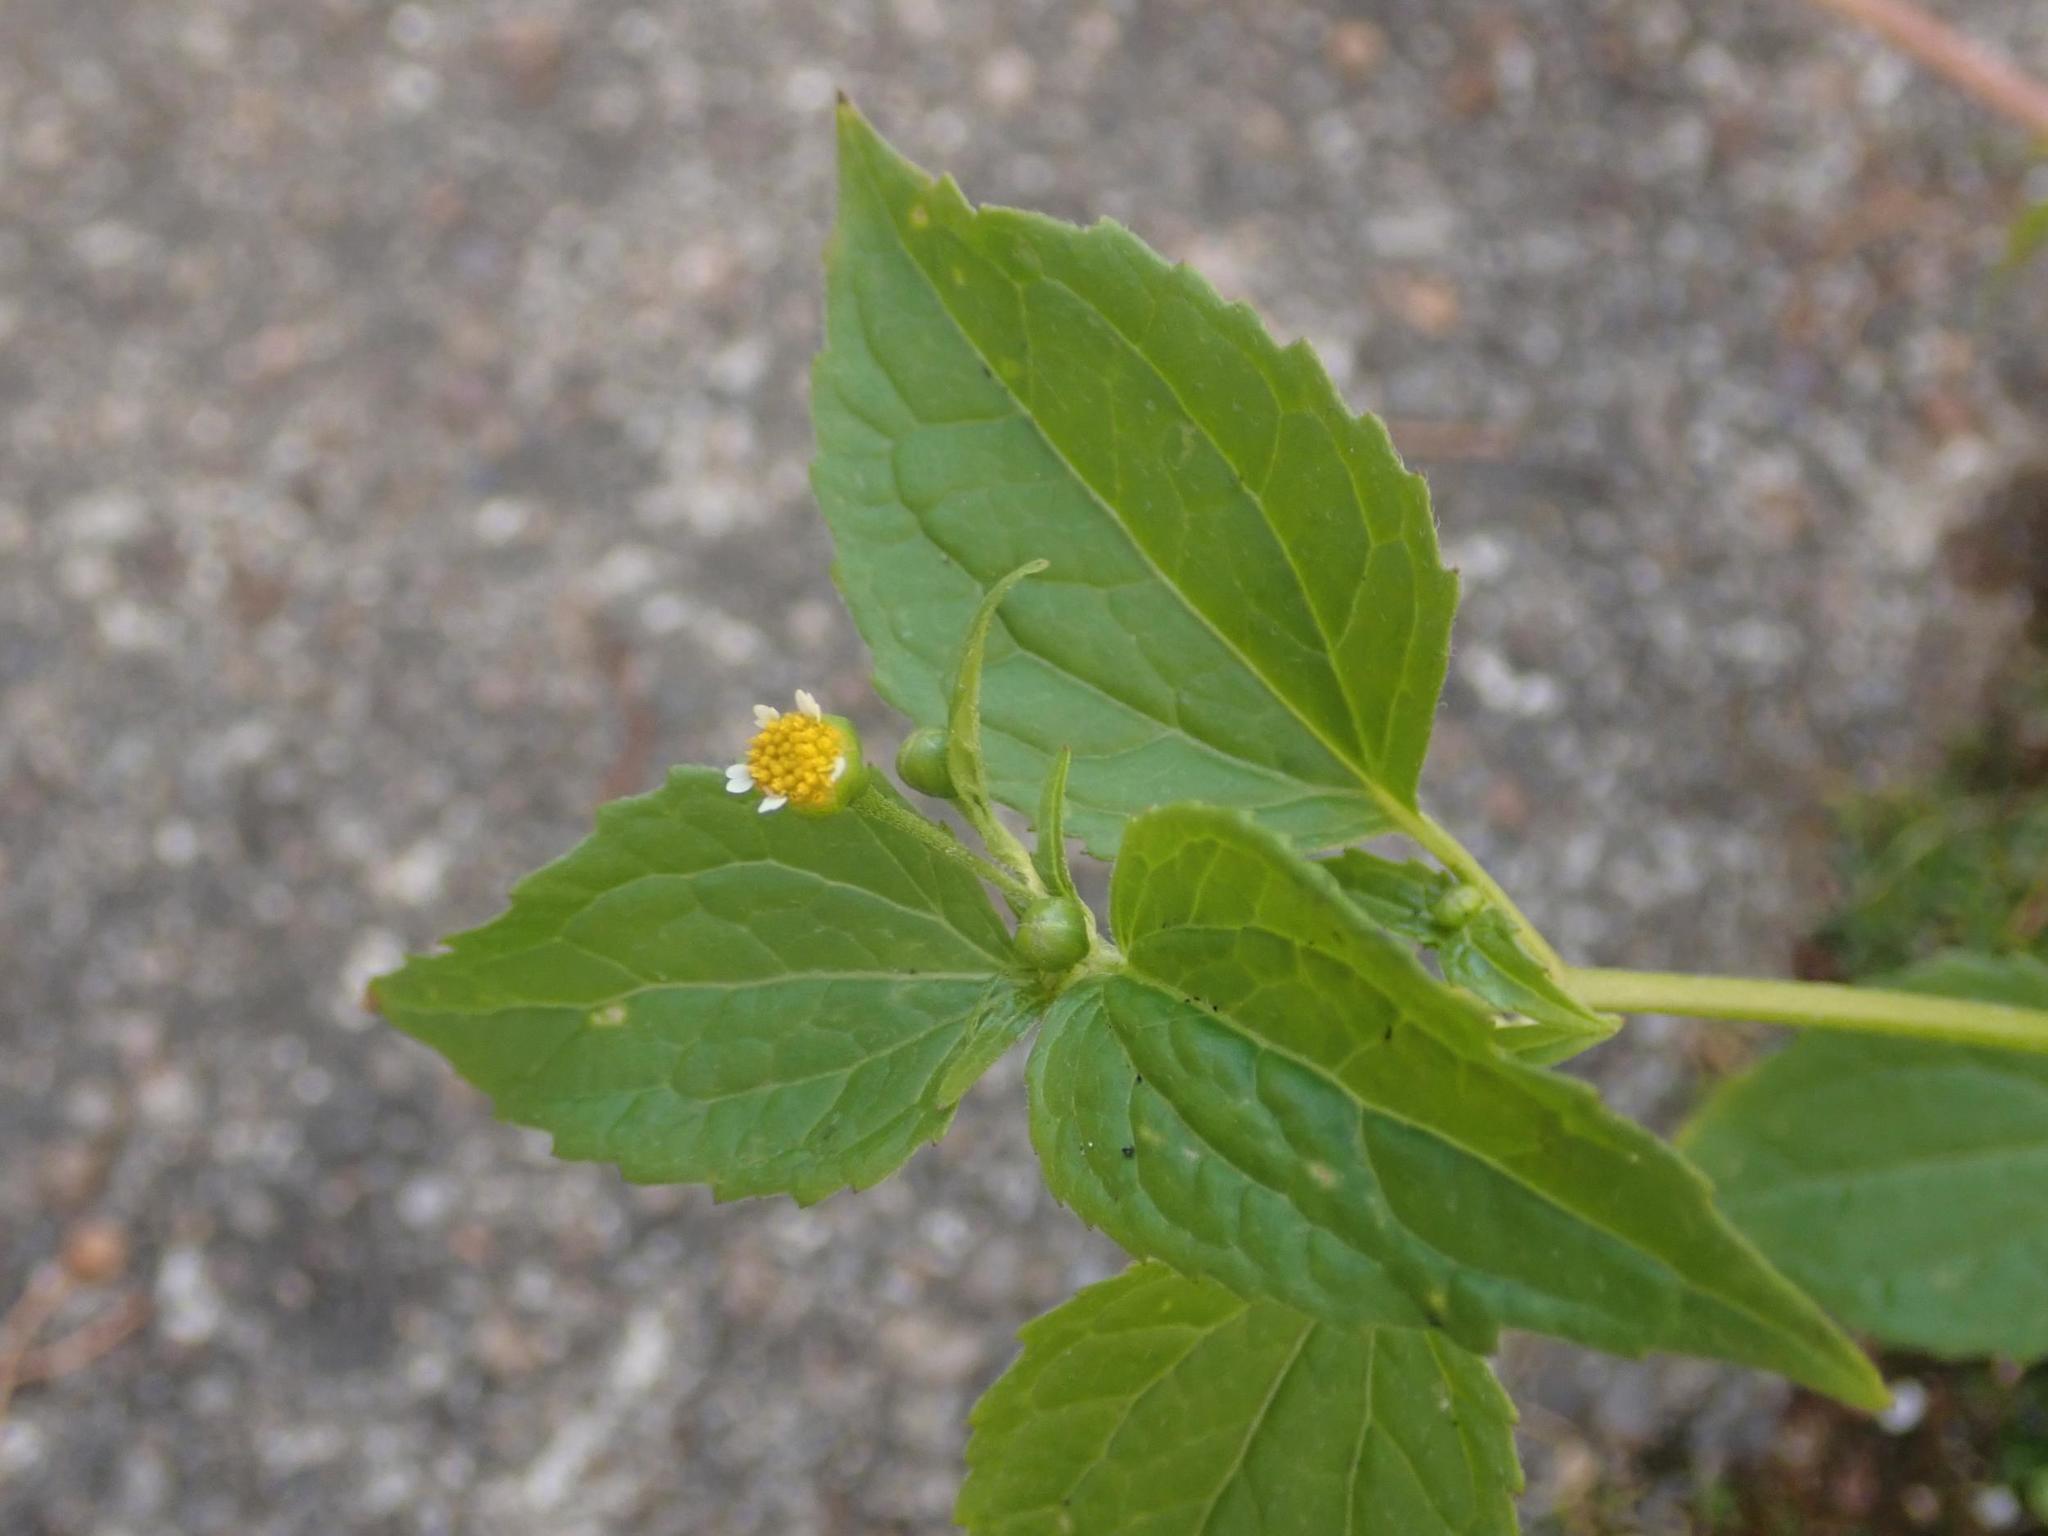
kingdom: Plantae
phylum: Tracheophyta
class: Magnoliopsida
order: Asterales
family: Asteraceae
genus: Galinsoga
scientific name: Galinsoga parviflora
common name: Gallant soldier
